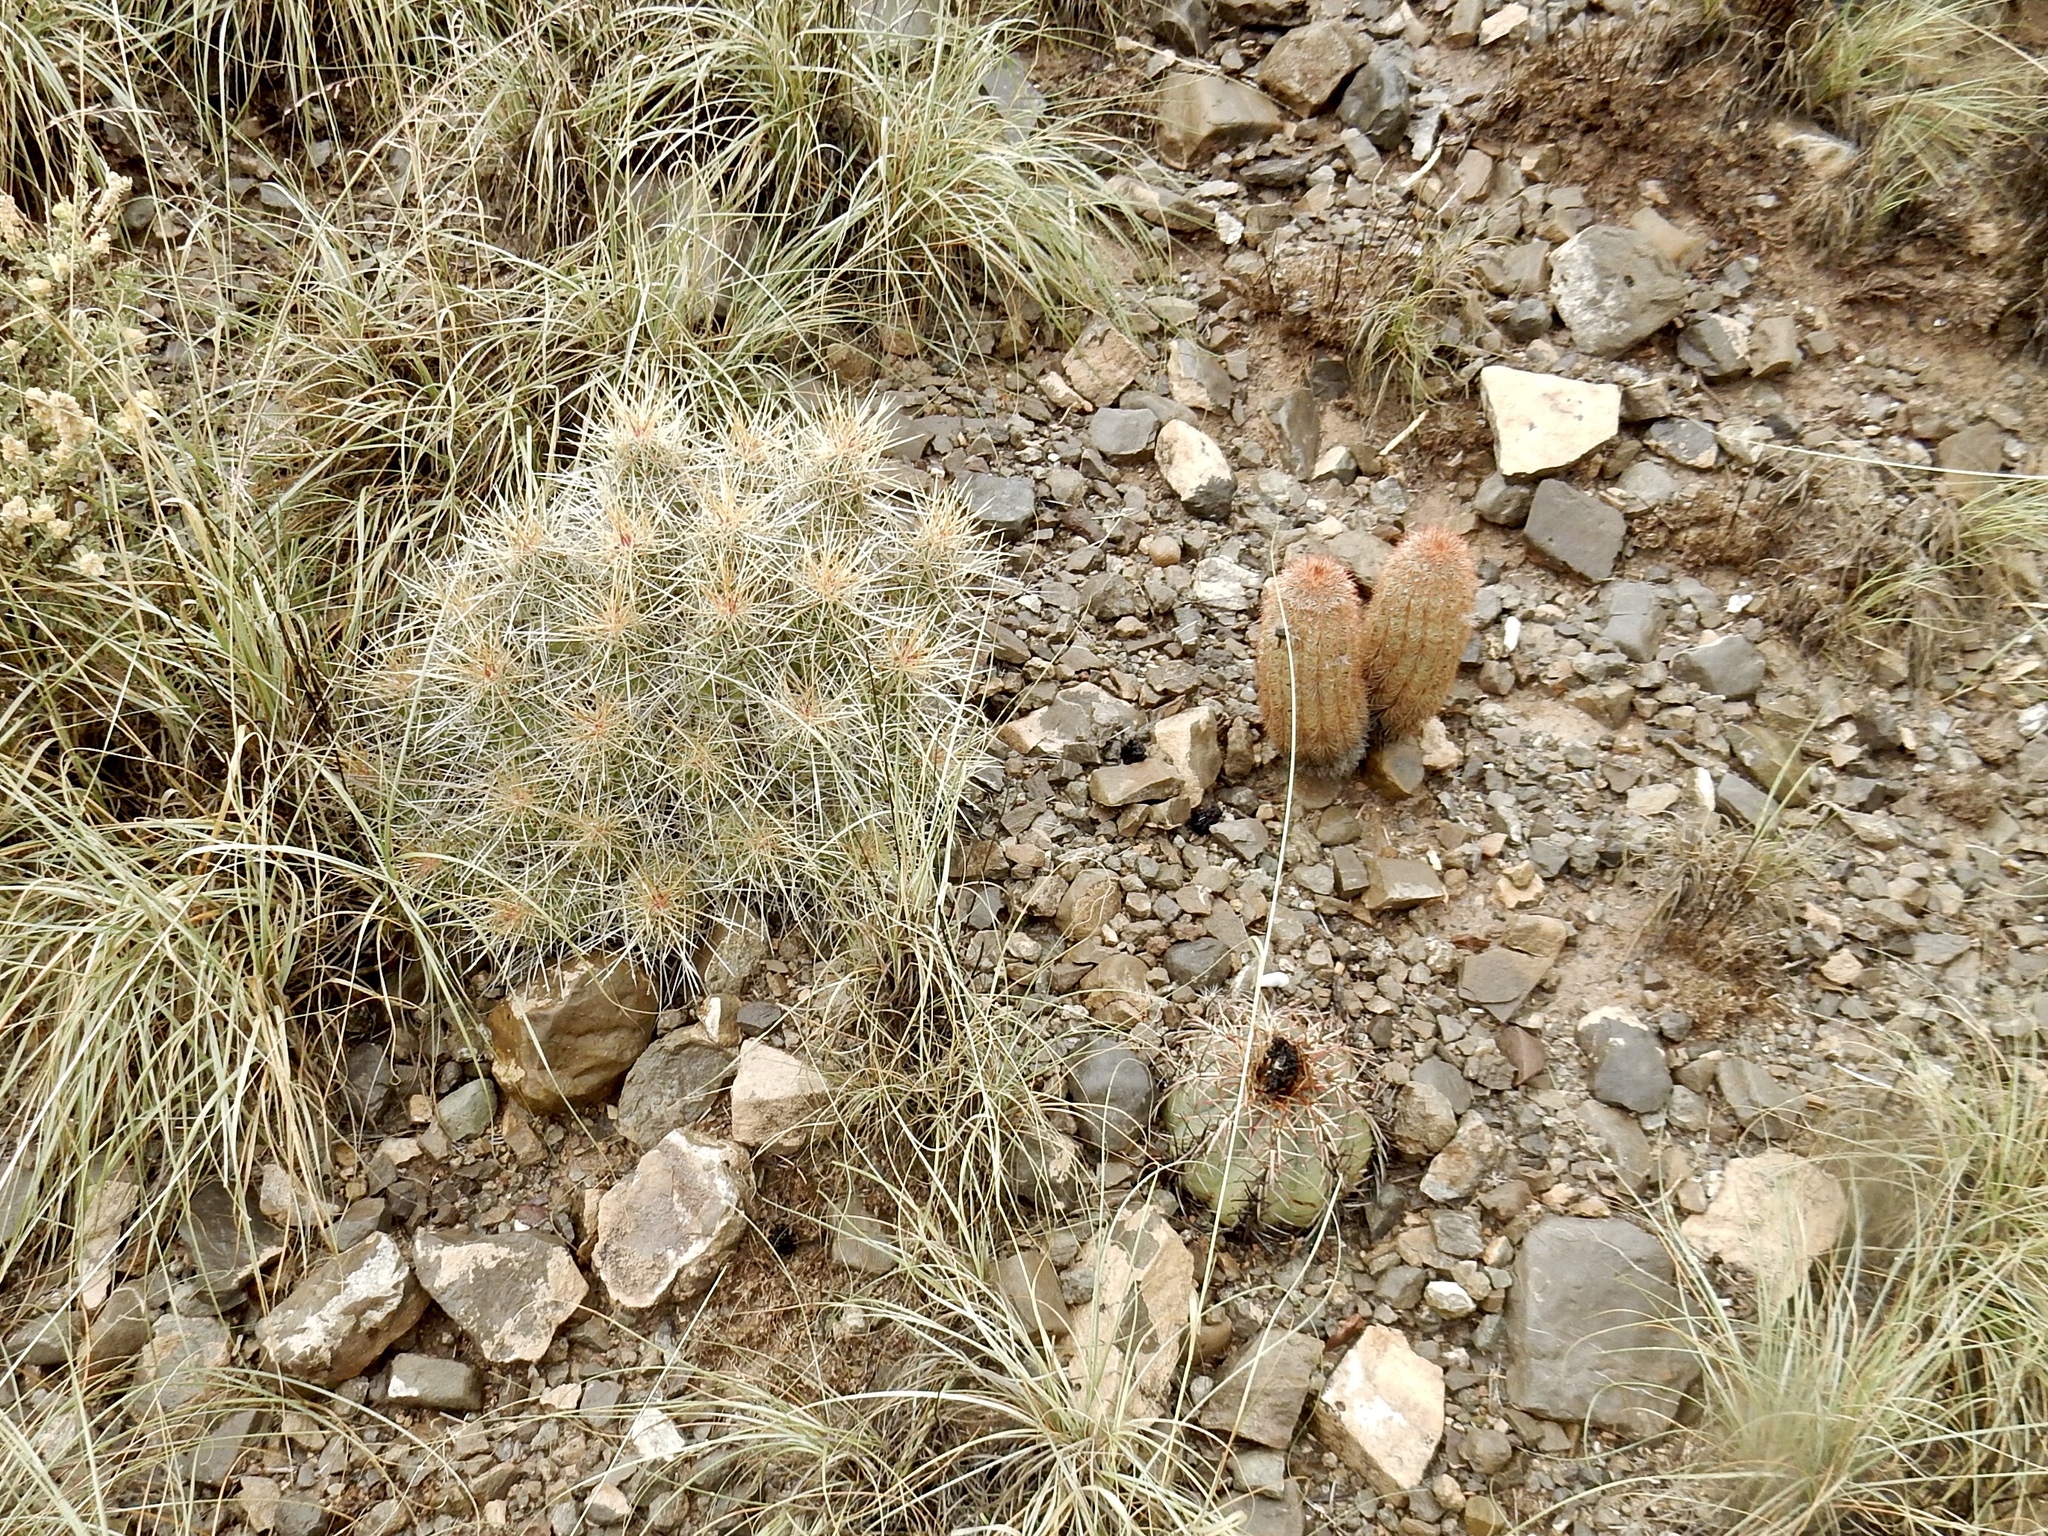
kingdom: Plantae
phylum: Tracheophyta
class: Magnoliopsida
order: Caryophyllales
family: Cactaceae
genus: Echinocactus
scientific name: Echinocactus horizonthalonius
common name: Devilshead
